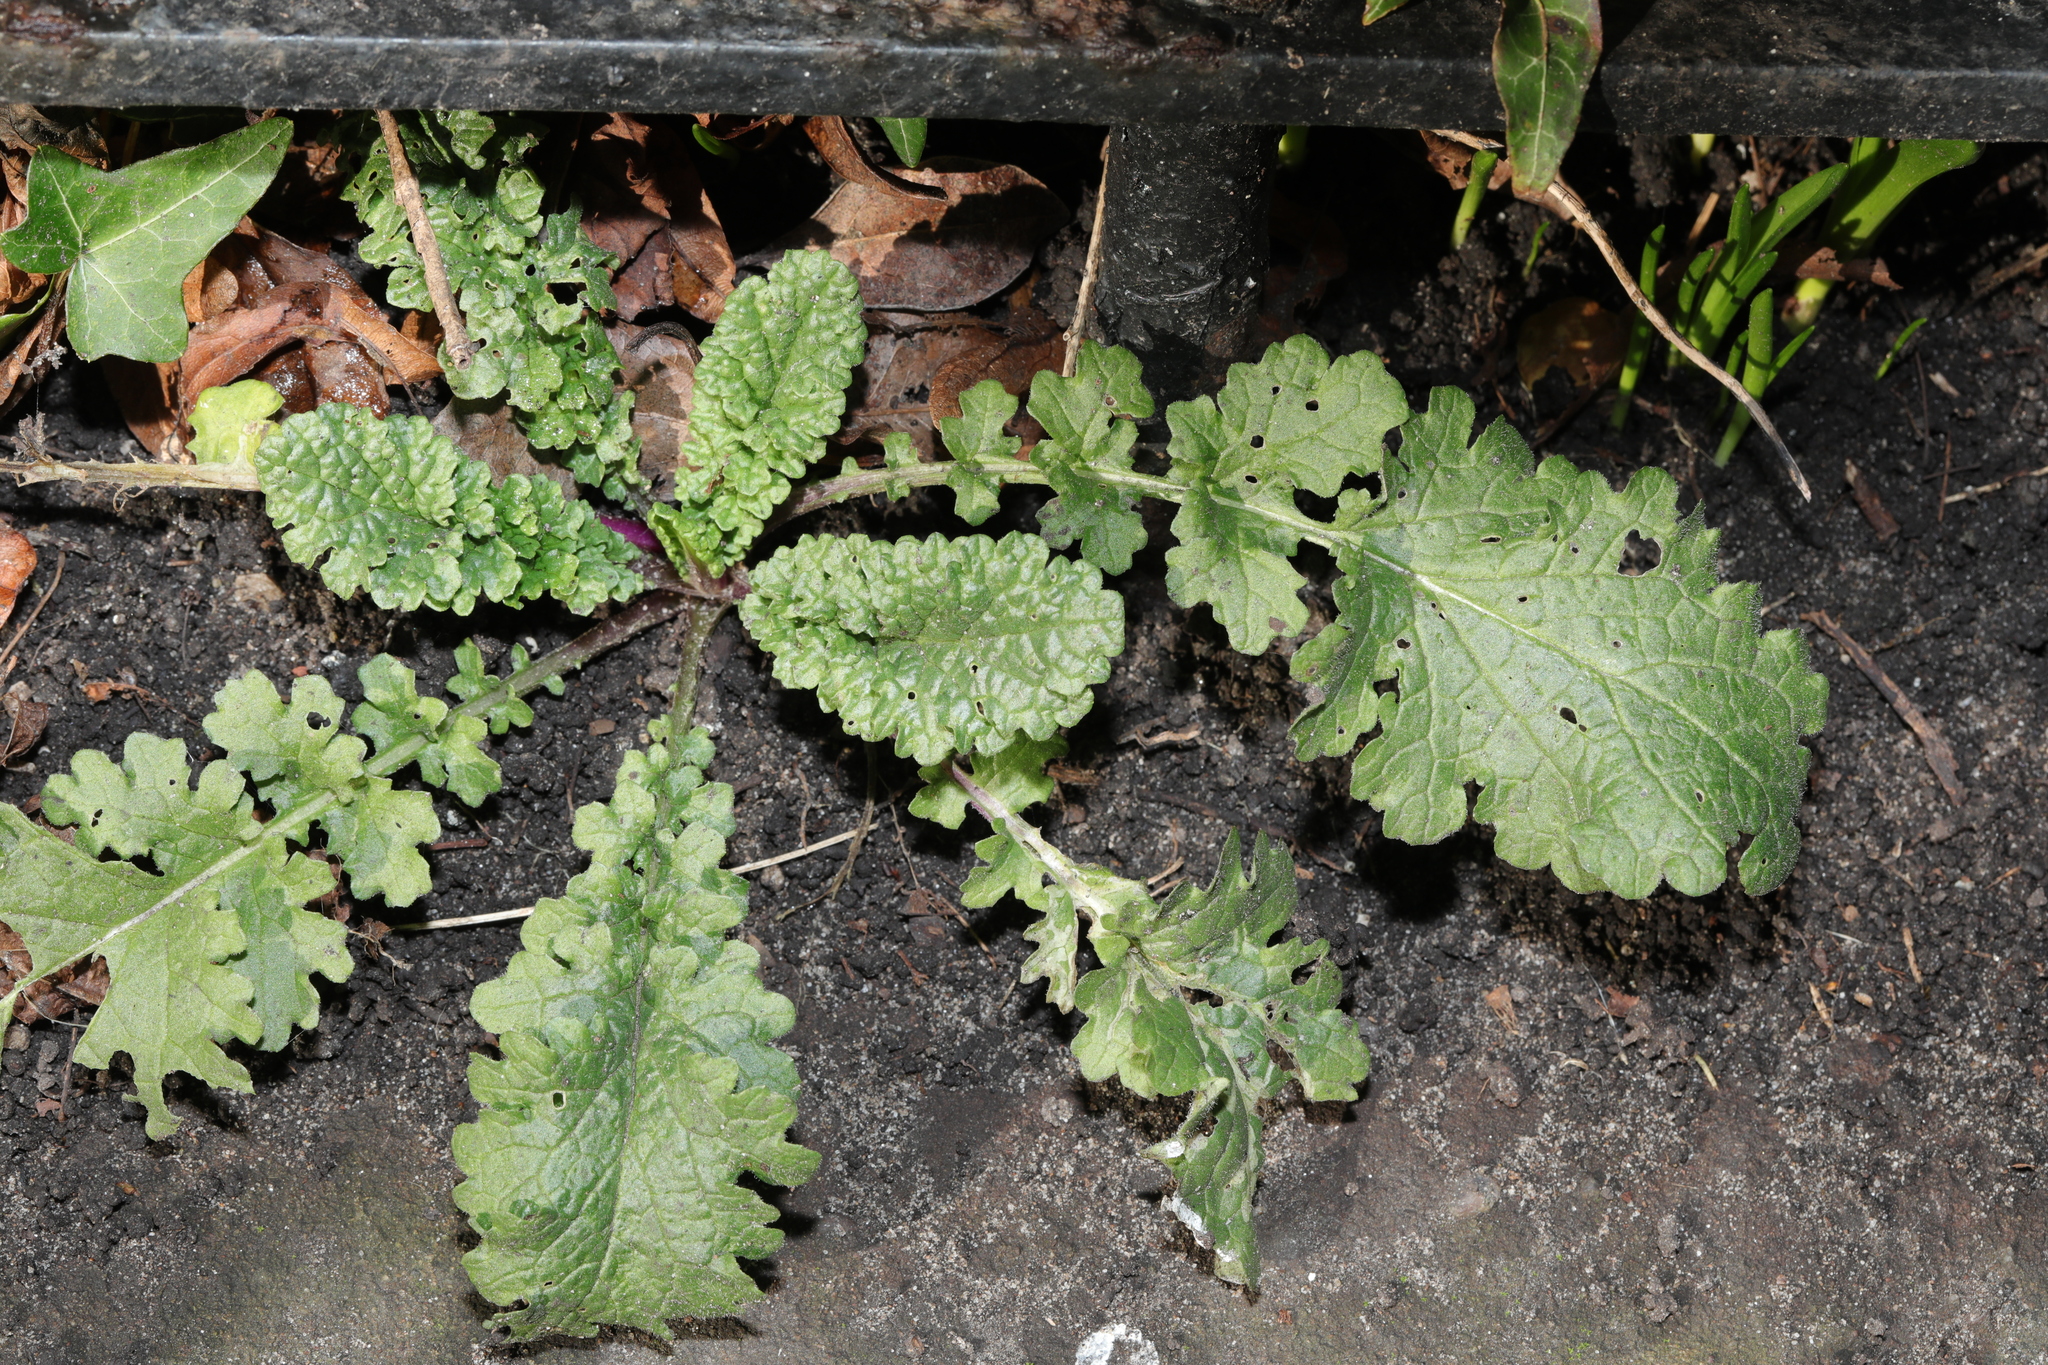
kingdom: Plantae
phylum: Tracheophyta
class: Magnoliopsida
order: Asterales
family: Asteraceae
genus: Jacobaea
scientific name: Jacobaea vulgaris
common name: Stinking willie
